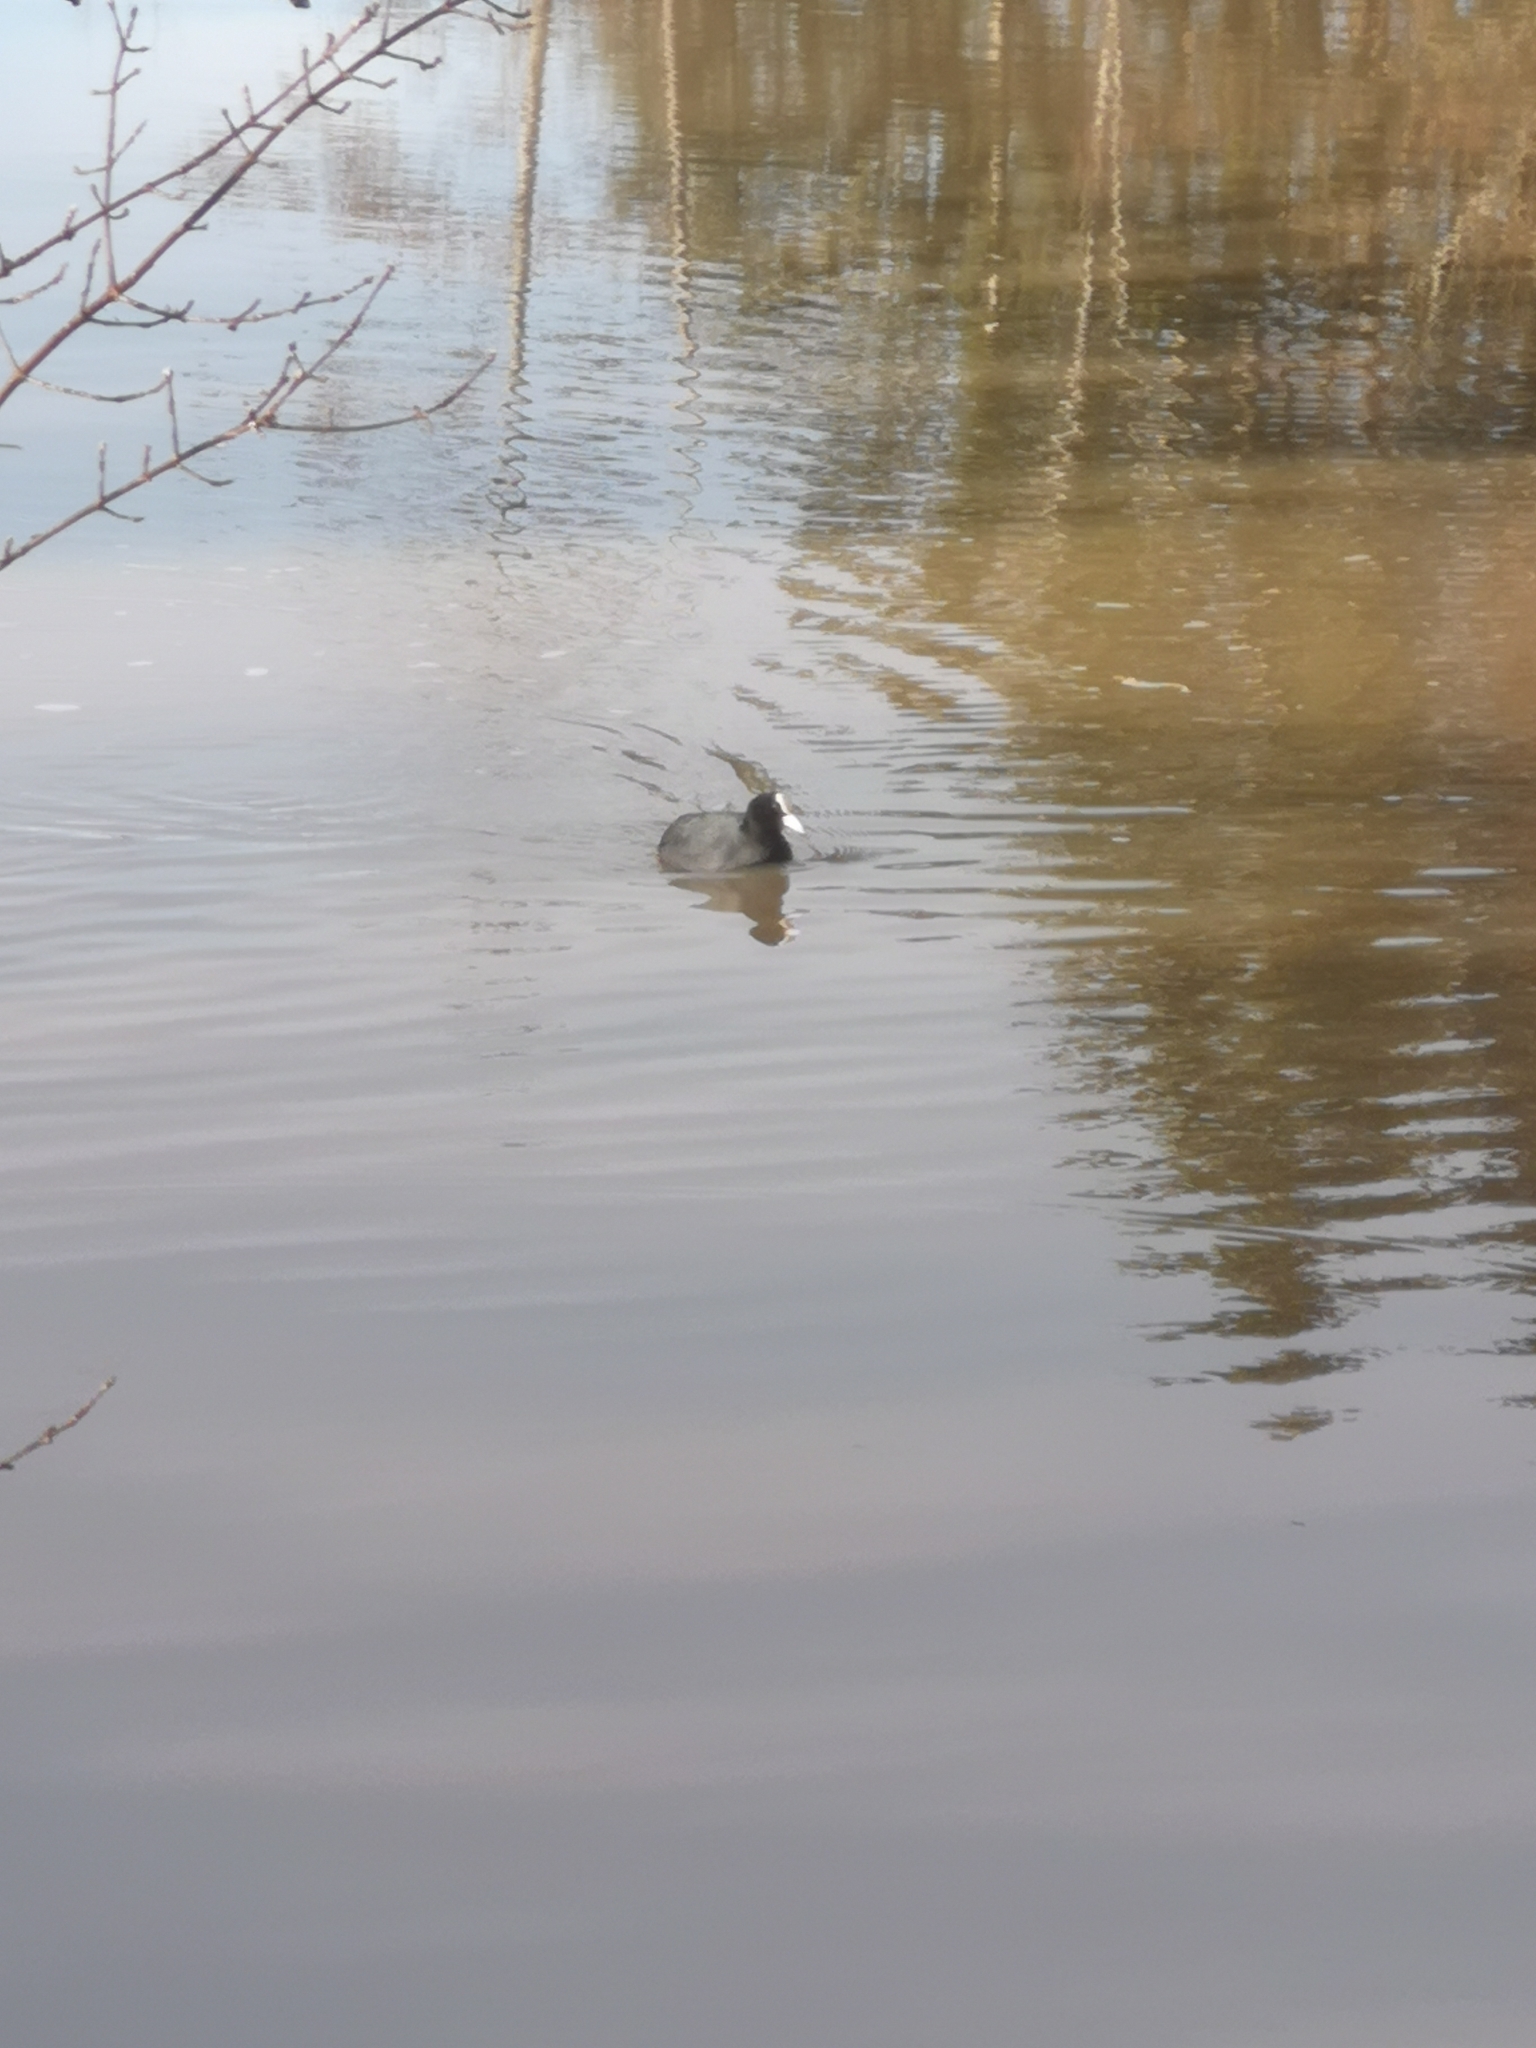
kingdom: Animalia
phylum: Chordata
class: Aves
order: Gruiformes
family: Rallidae
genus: Fulica
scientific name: Fulica atra
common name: Eurasian coot
